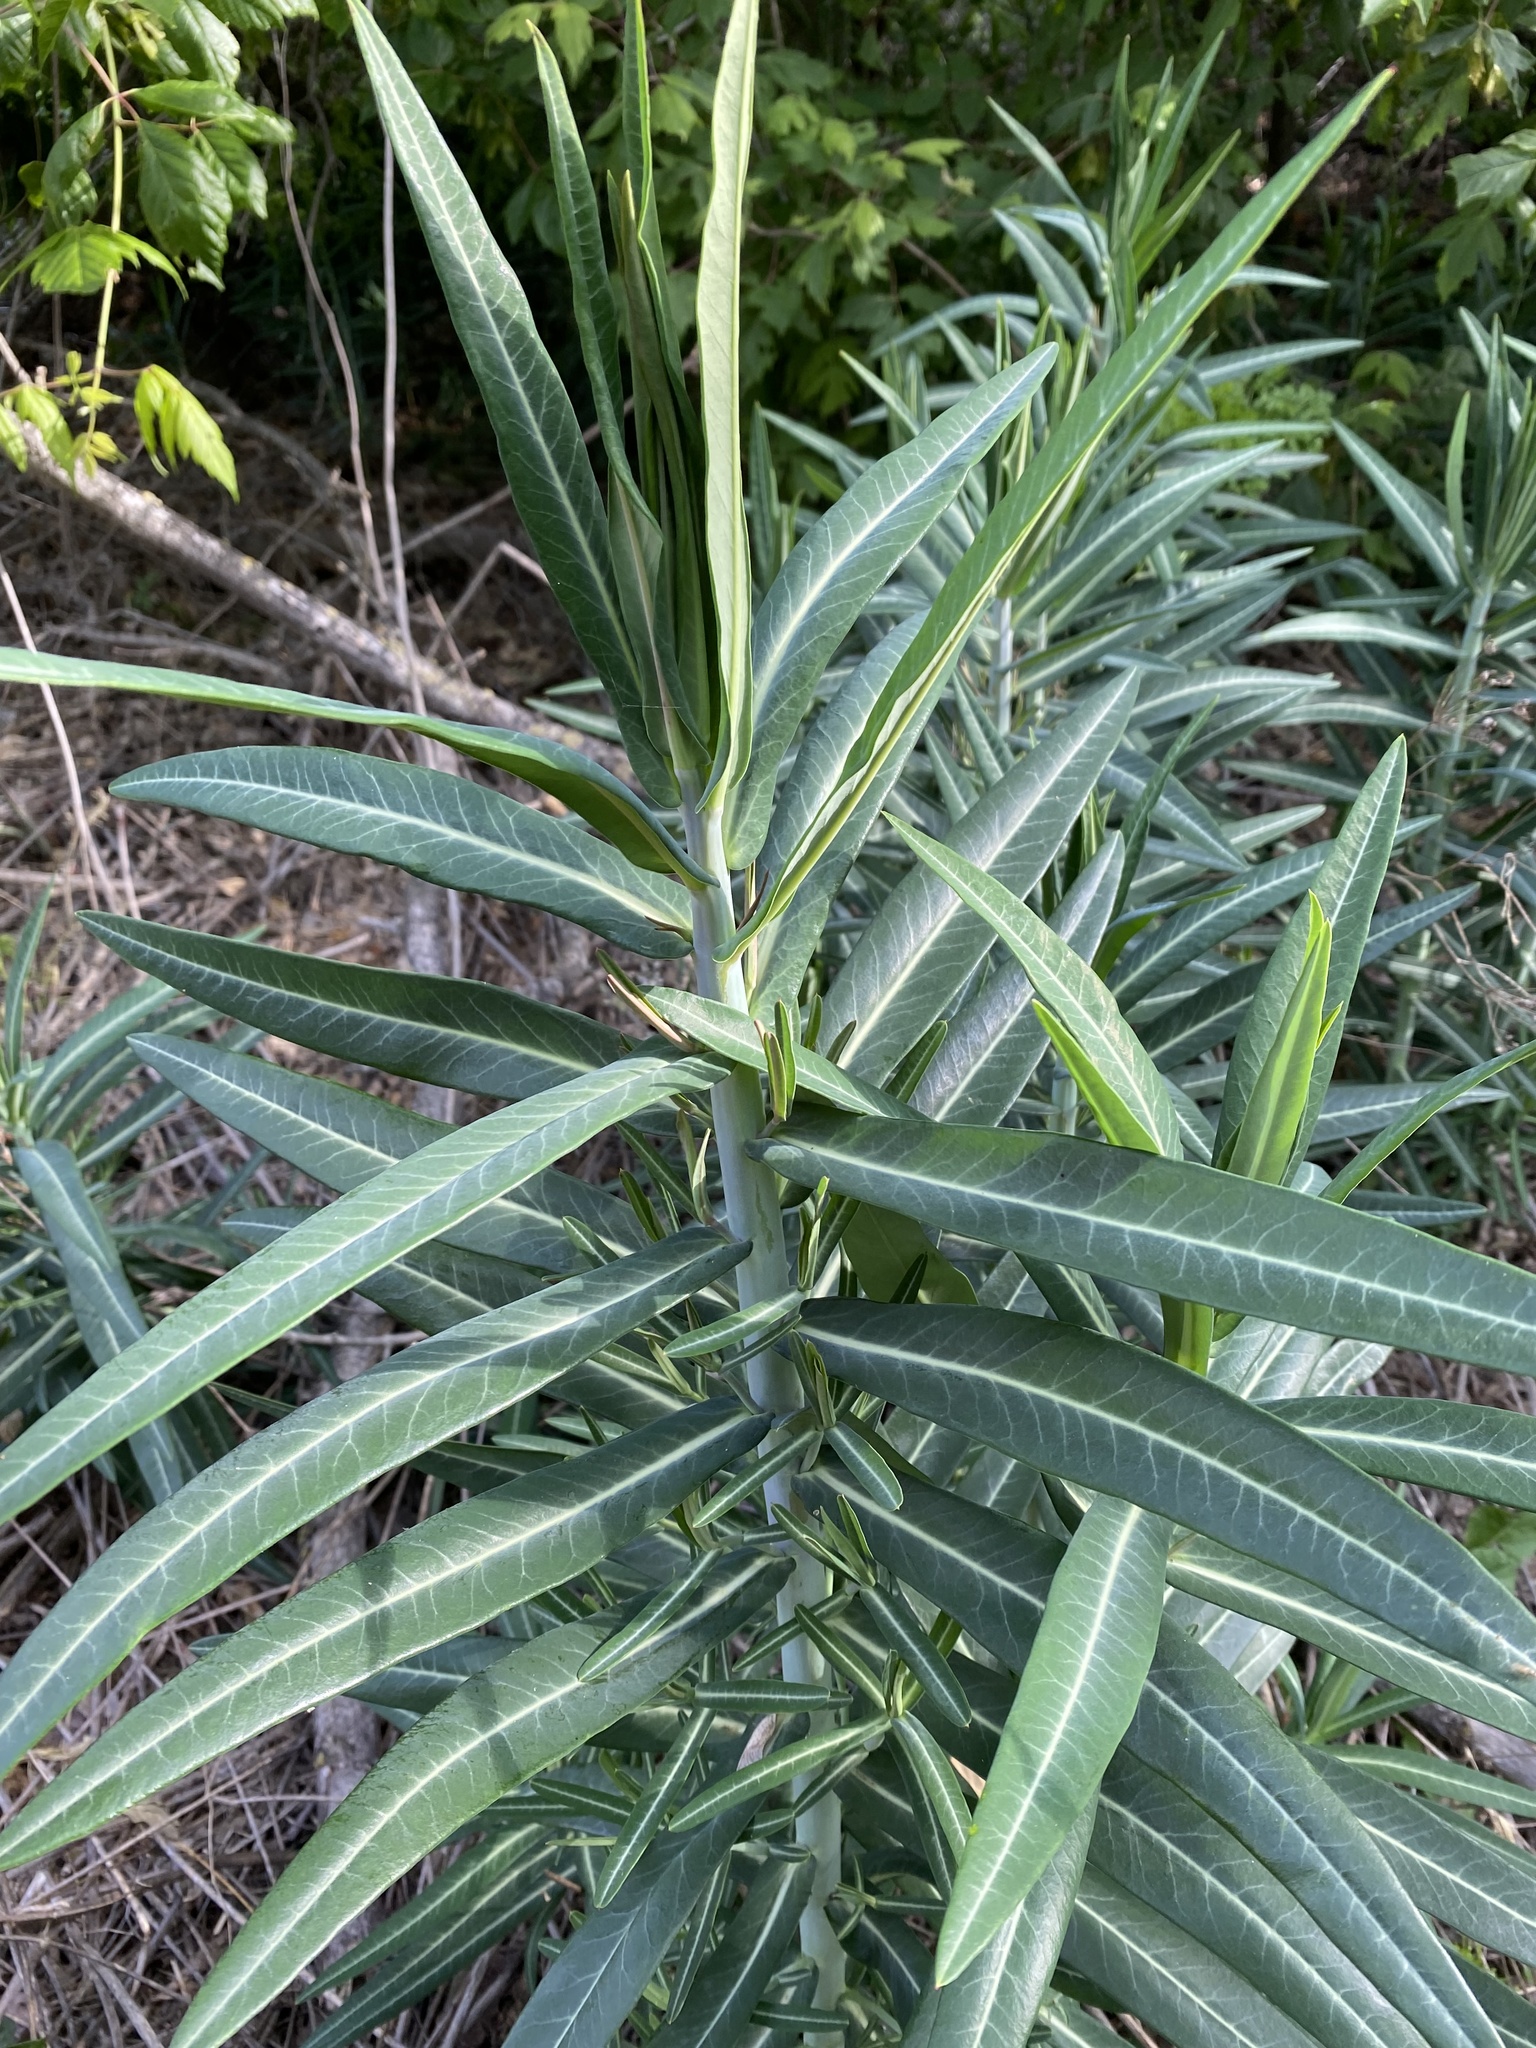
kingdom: Plantae
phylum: Tracheophyta
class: Magnoliopsida
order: Malpighiales
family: Euphorbiaceae
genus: Euphorbia
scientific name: Euphorbia lathyris
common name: Caper spurge
